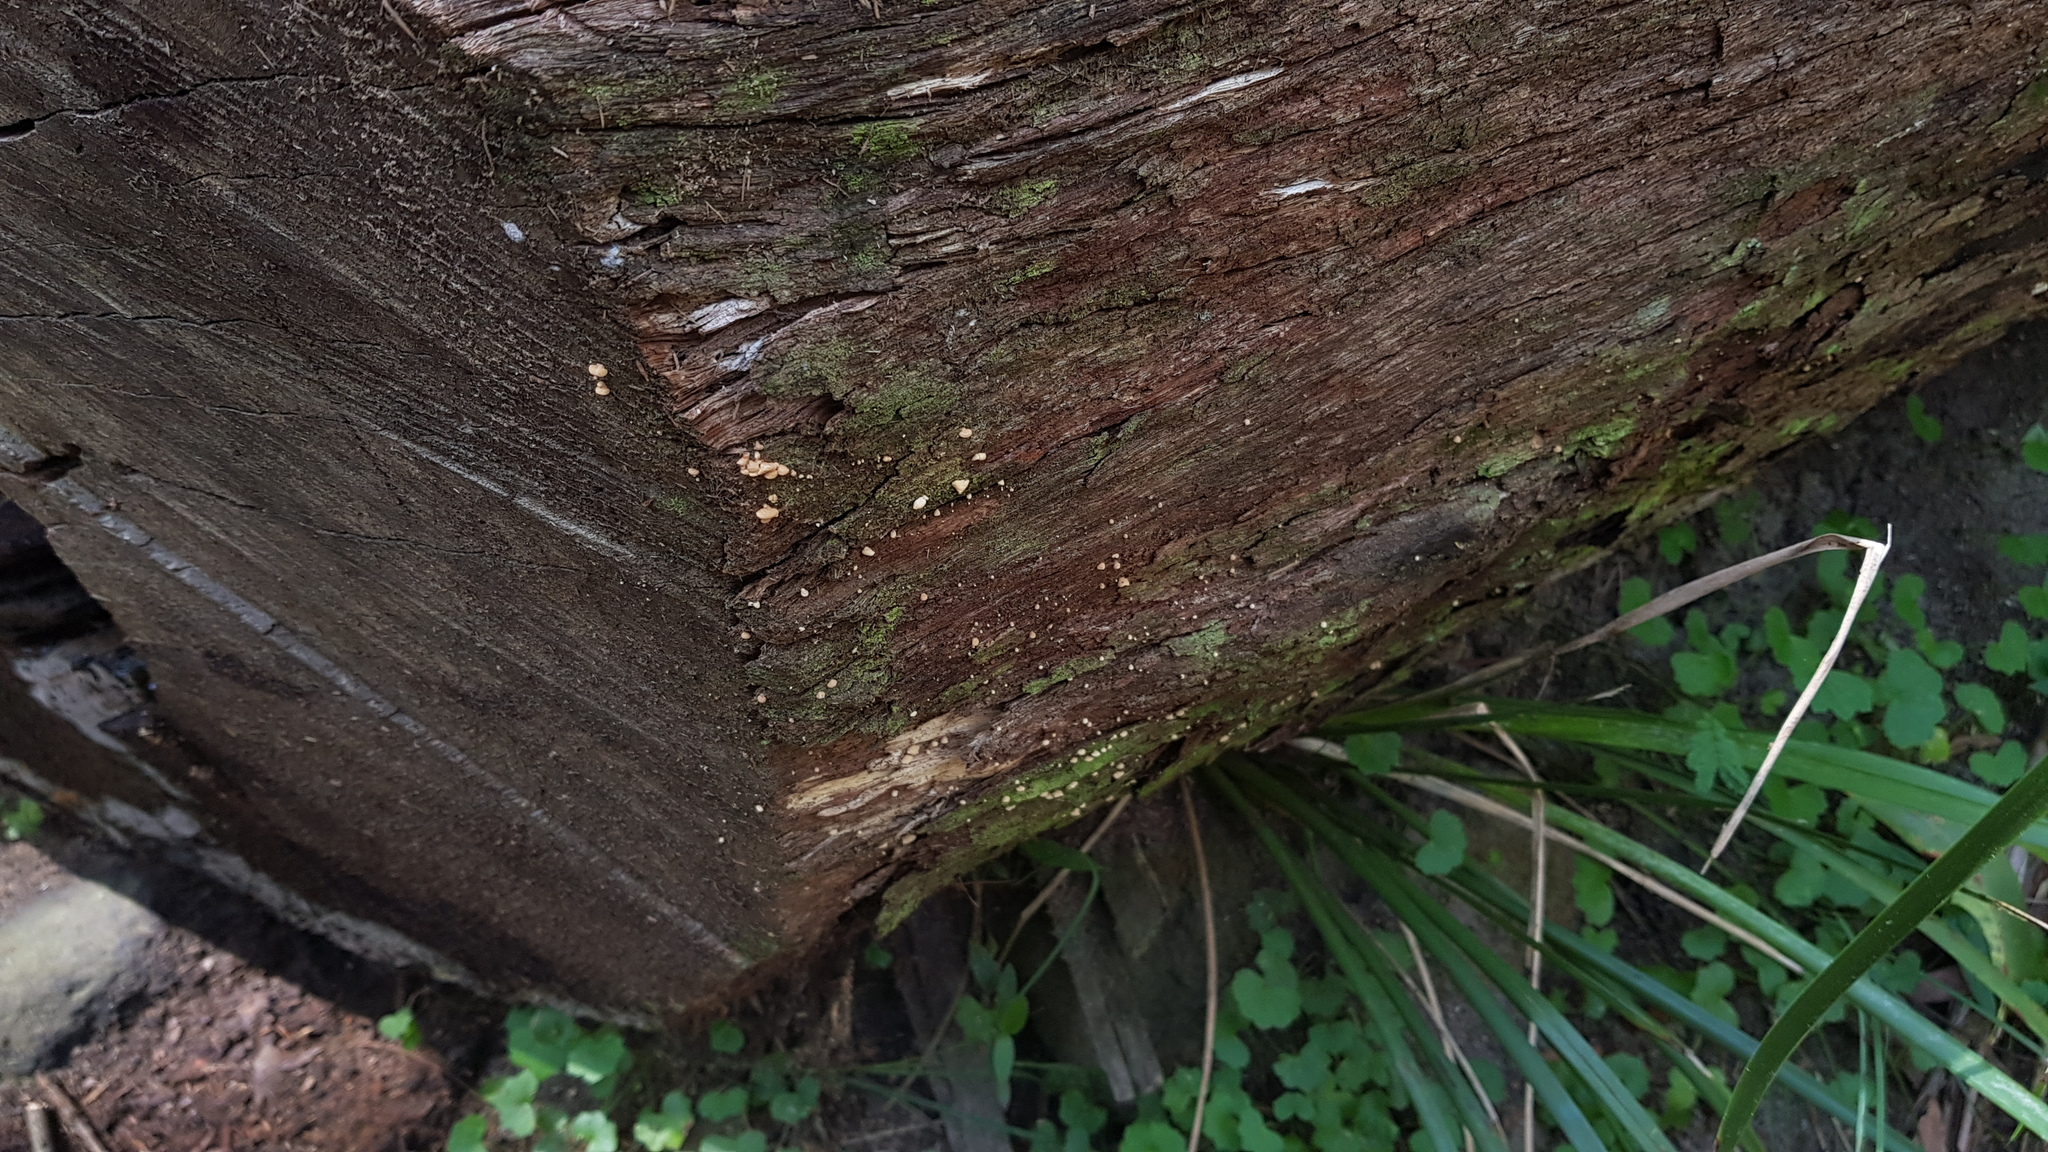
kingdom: Fungi
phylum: Basidiomycota
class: Agaricomycetes
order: Agaricales
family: Mycenaceae
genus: Panellus
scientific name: Panellus luxfilamentus
